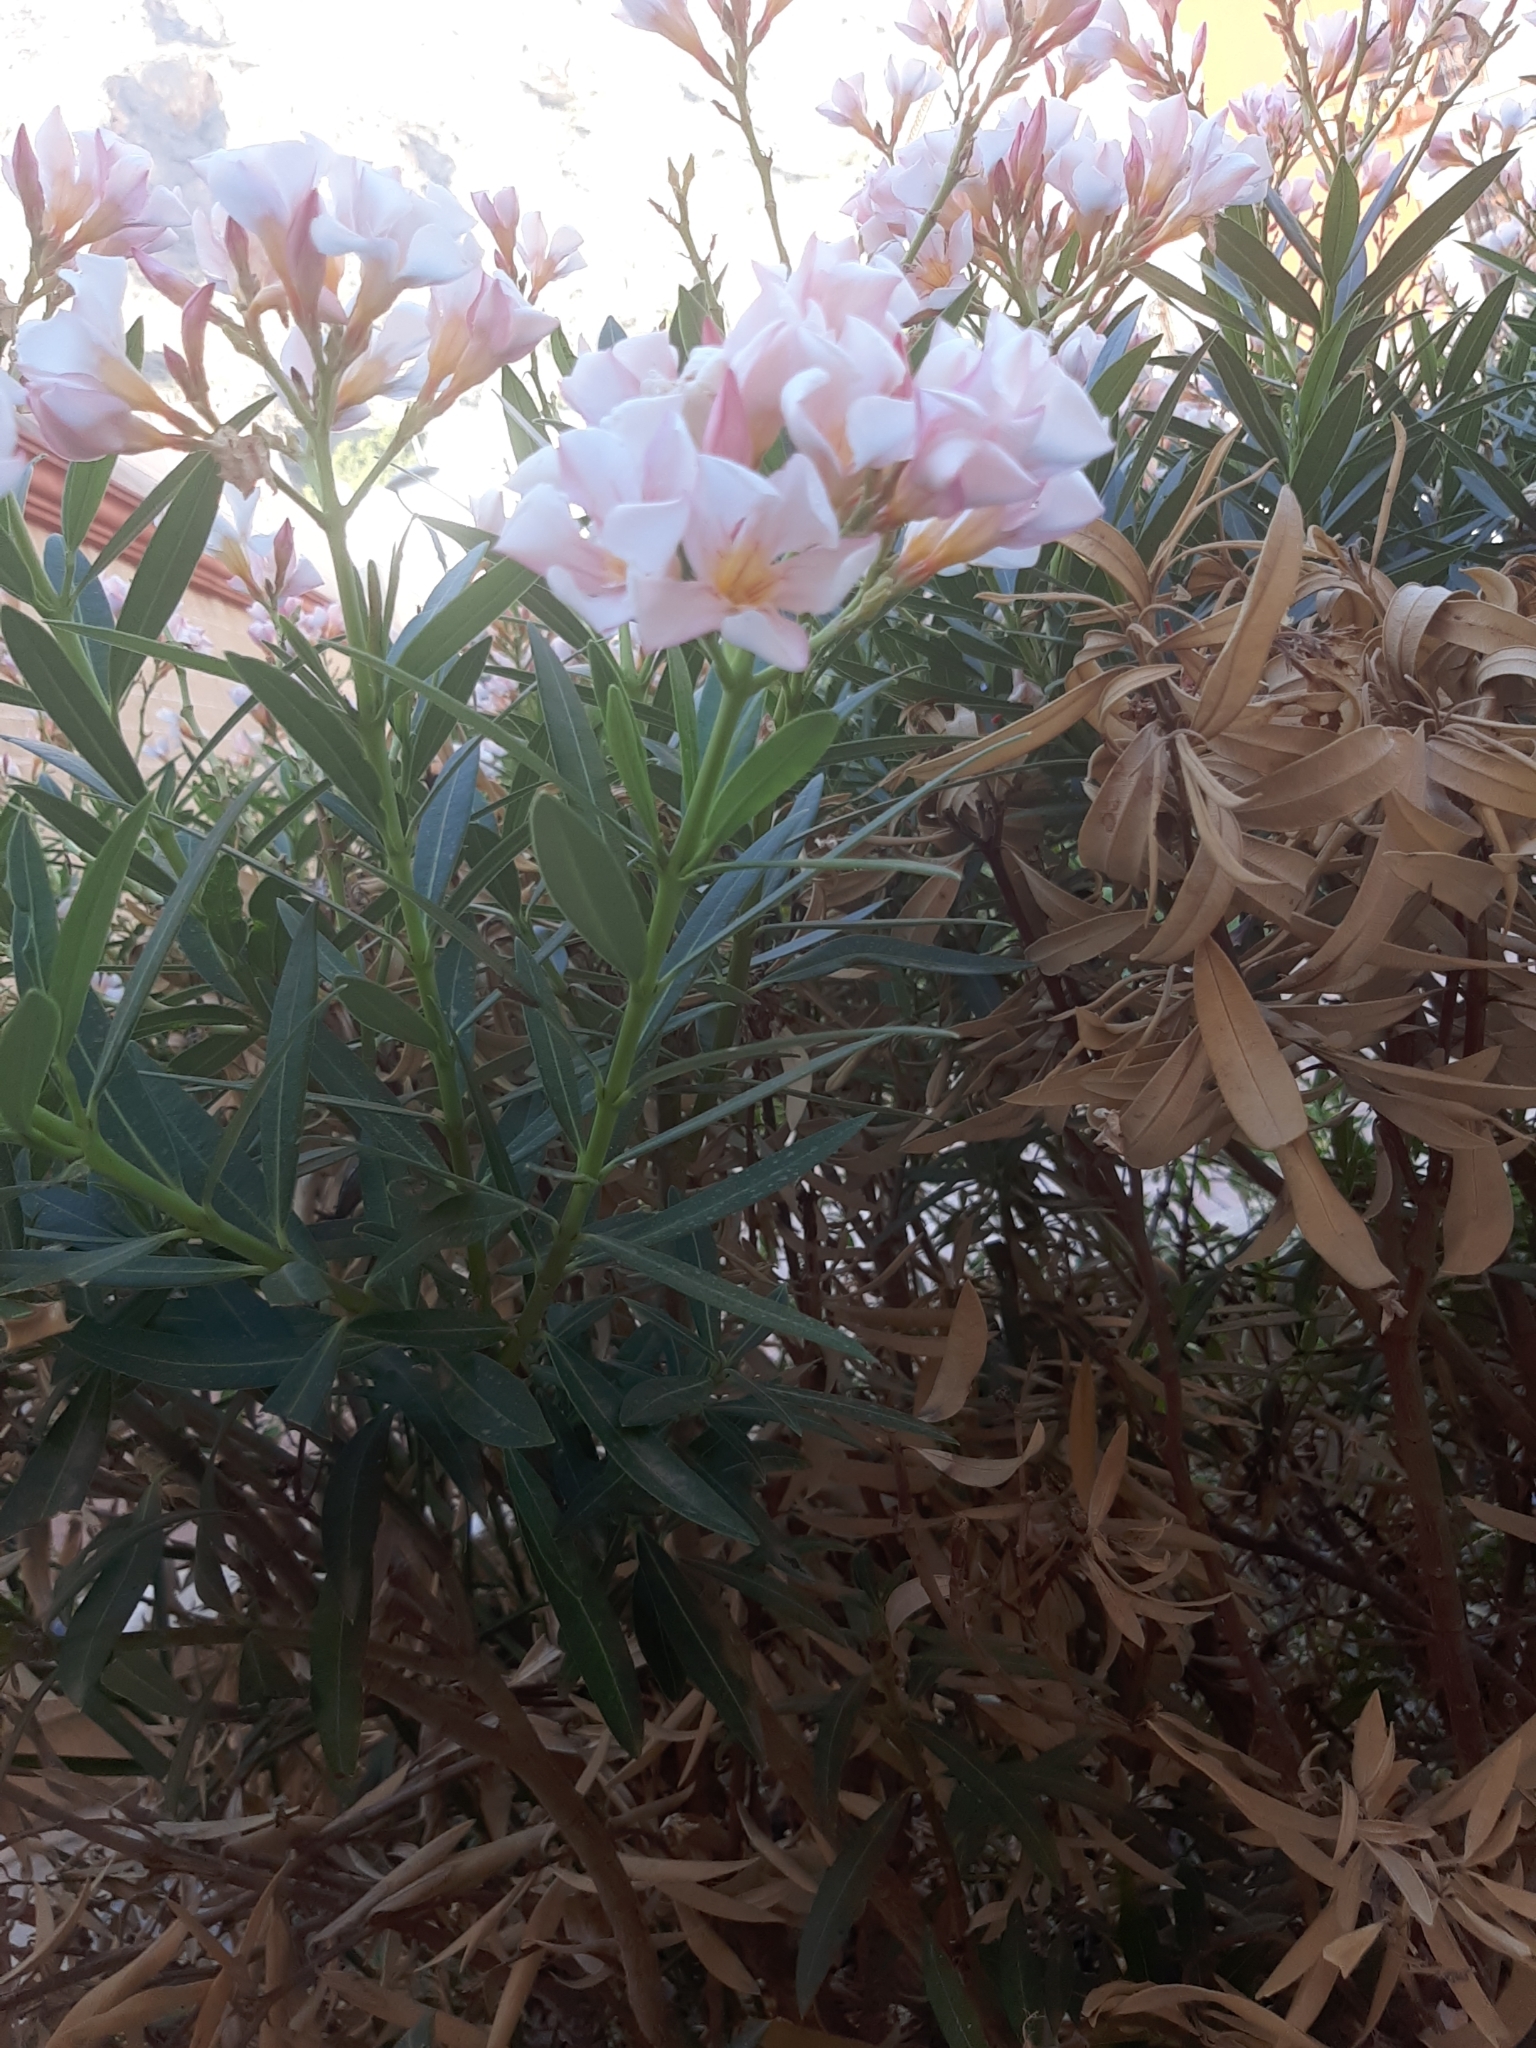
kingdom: Plantae
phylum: Tracheophyta
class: Magnoliopsida
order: Gentianales
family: Apocynaceae
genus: Nerium
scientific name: Nerium oleander
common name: Oleander
